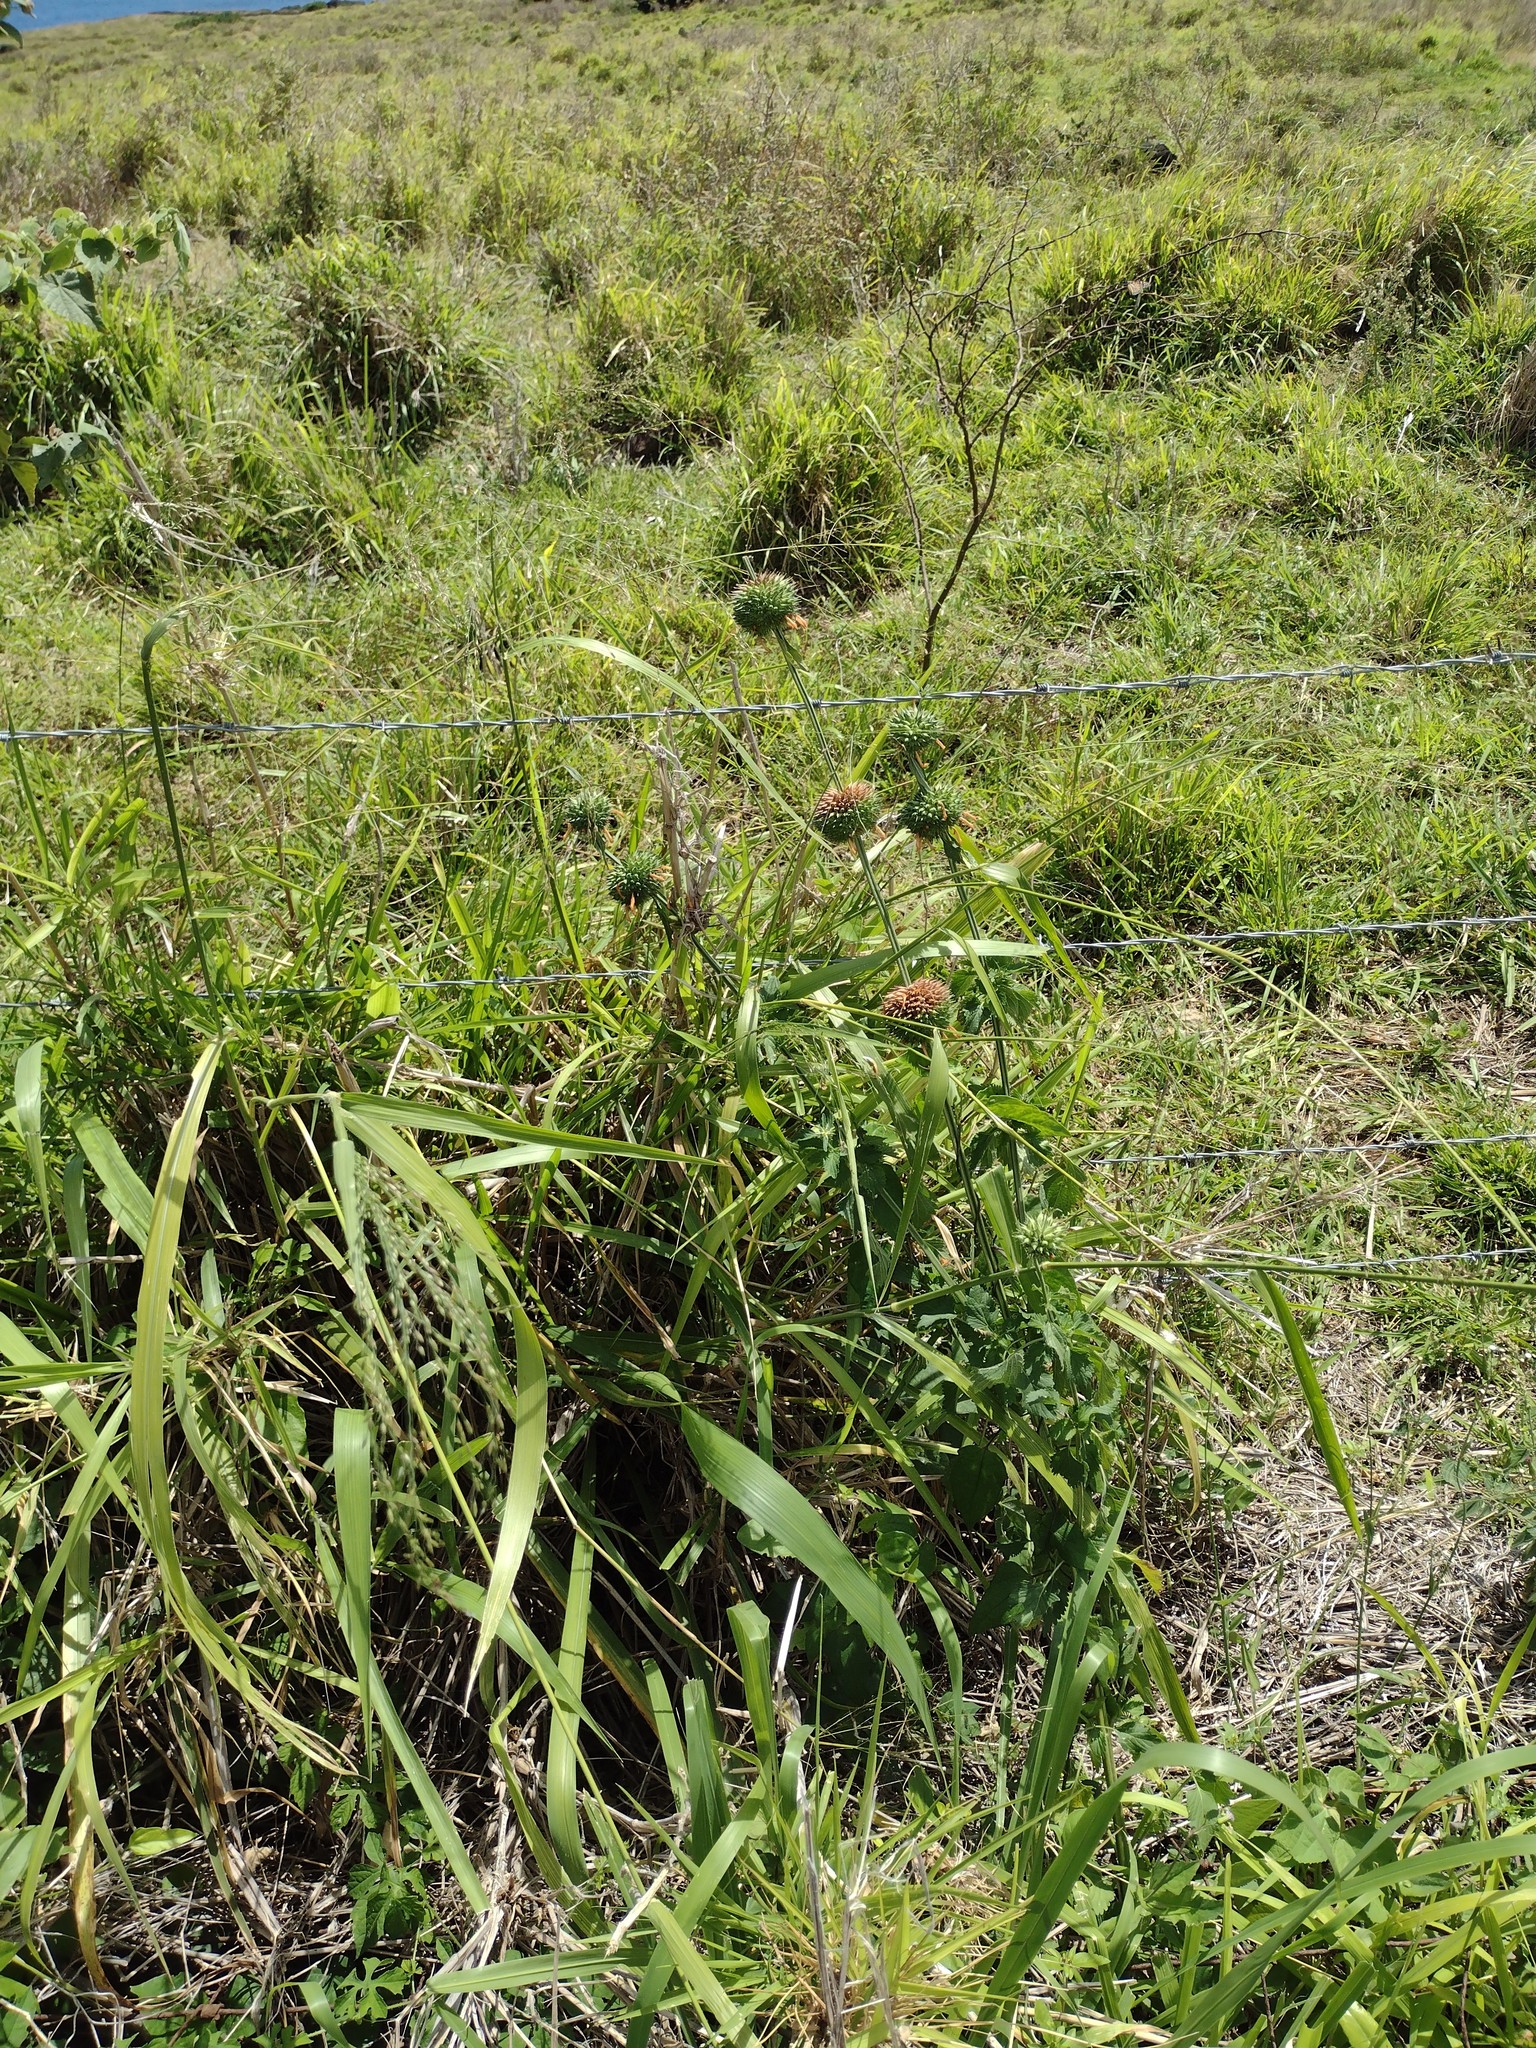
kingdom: Plantae
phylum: Tracheophyta
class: Magnoliopsida
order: Lamiales
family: Lamiaceae
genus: Leonotis
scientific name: Leonotis nepetifolia
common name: Christmas candlestick
